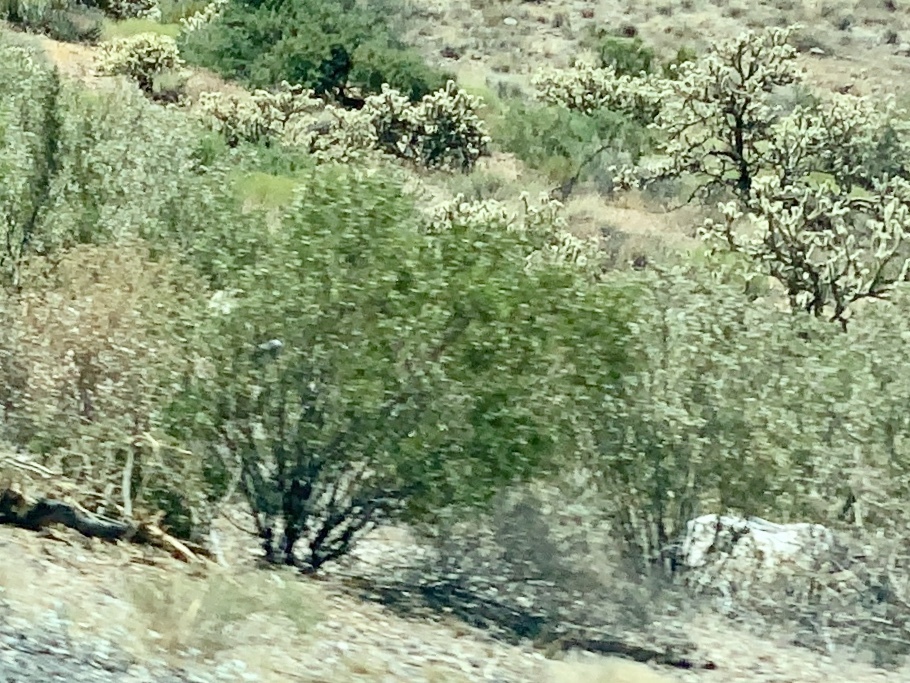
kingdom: Plantae
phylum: Tracheophyta
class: Magnoliopsida
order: Zygophyllales
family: Zygophyllaceae
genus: Larrea
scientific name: Larrea tridentata
